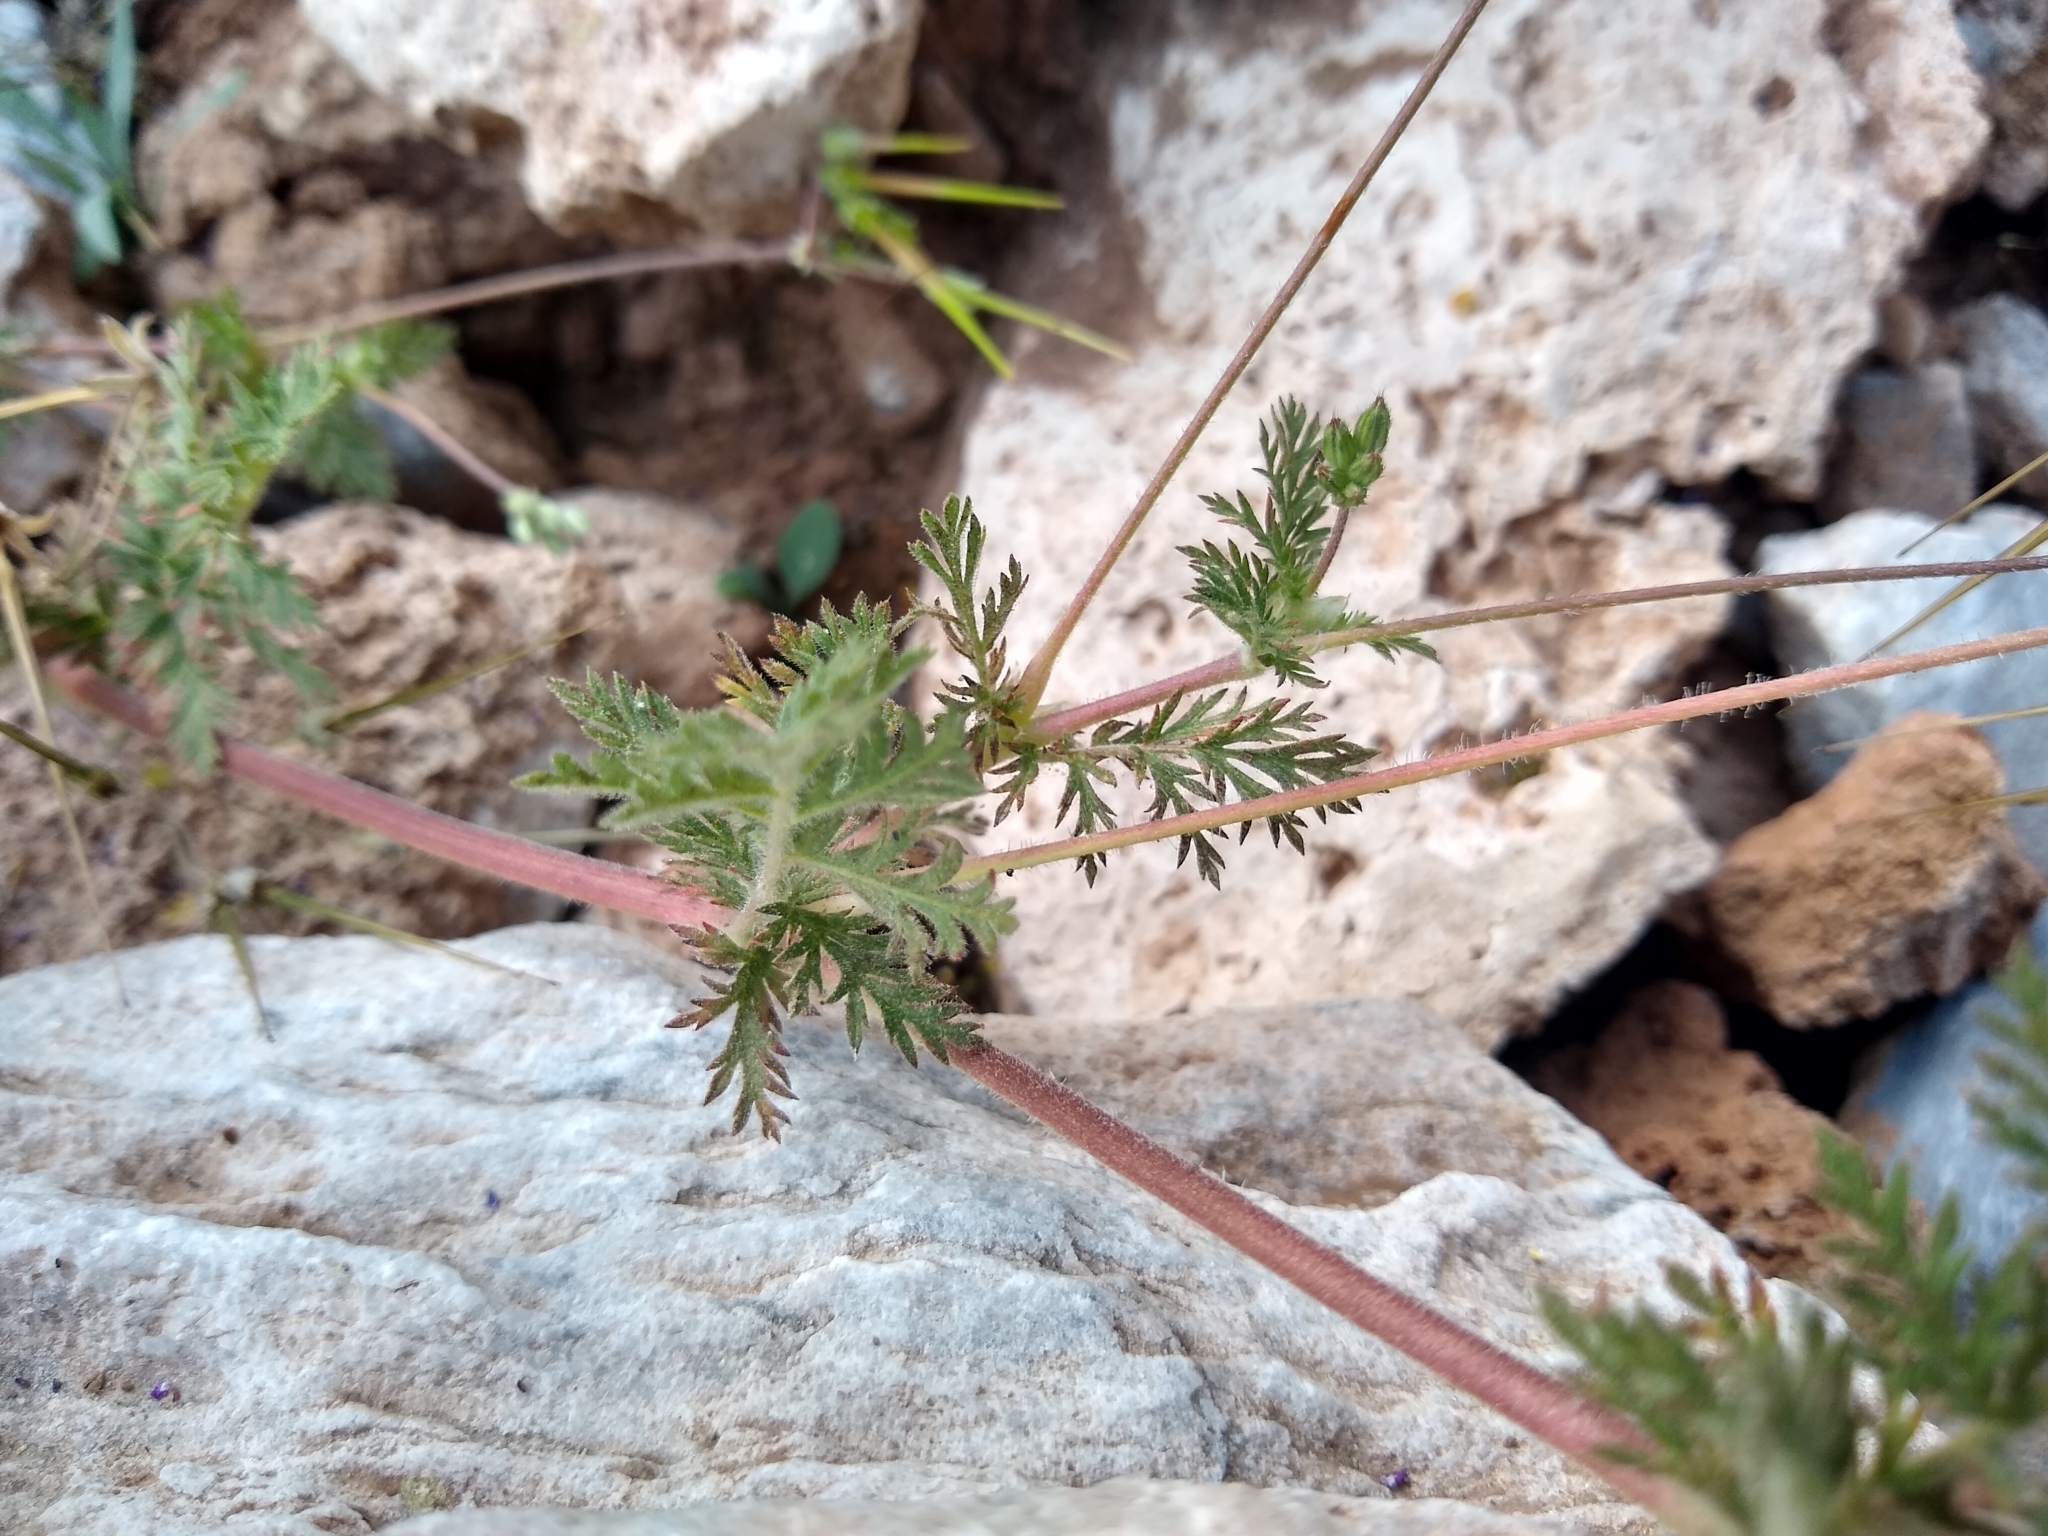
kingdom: Plantae
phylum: Tracheophyta
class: Magnoliopsida
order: Geraniales
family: Geraniaceae
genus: Erodium
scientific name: Erodium cicutarium
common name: Common stork's-bill
